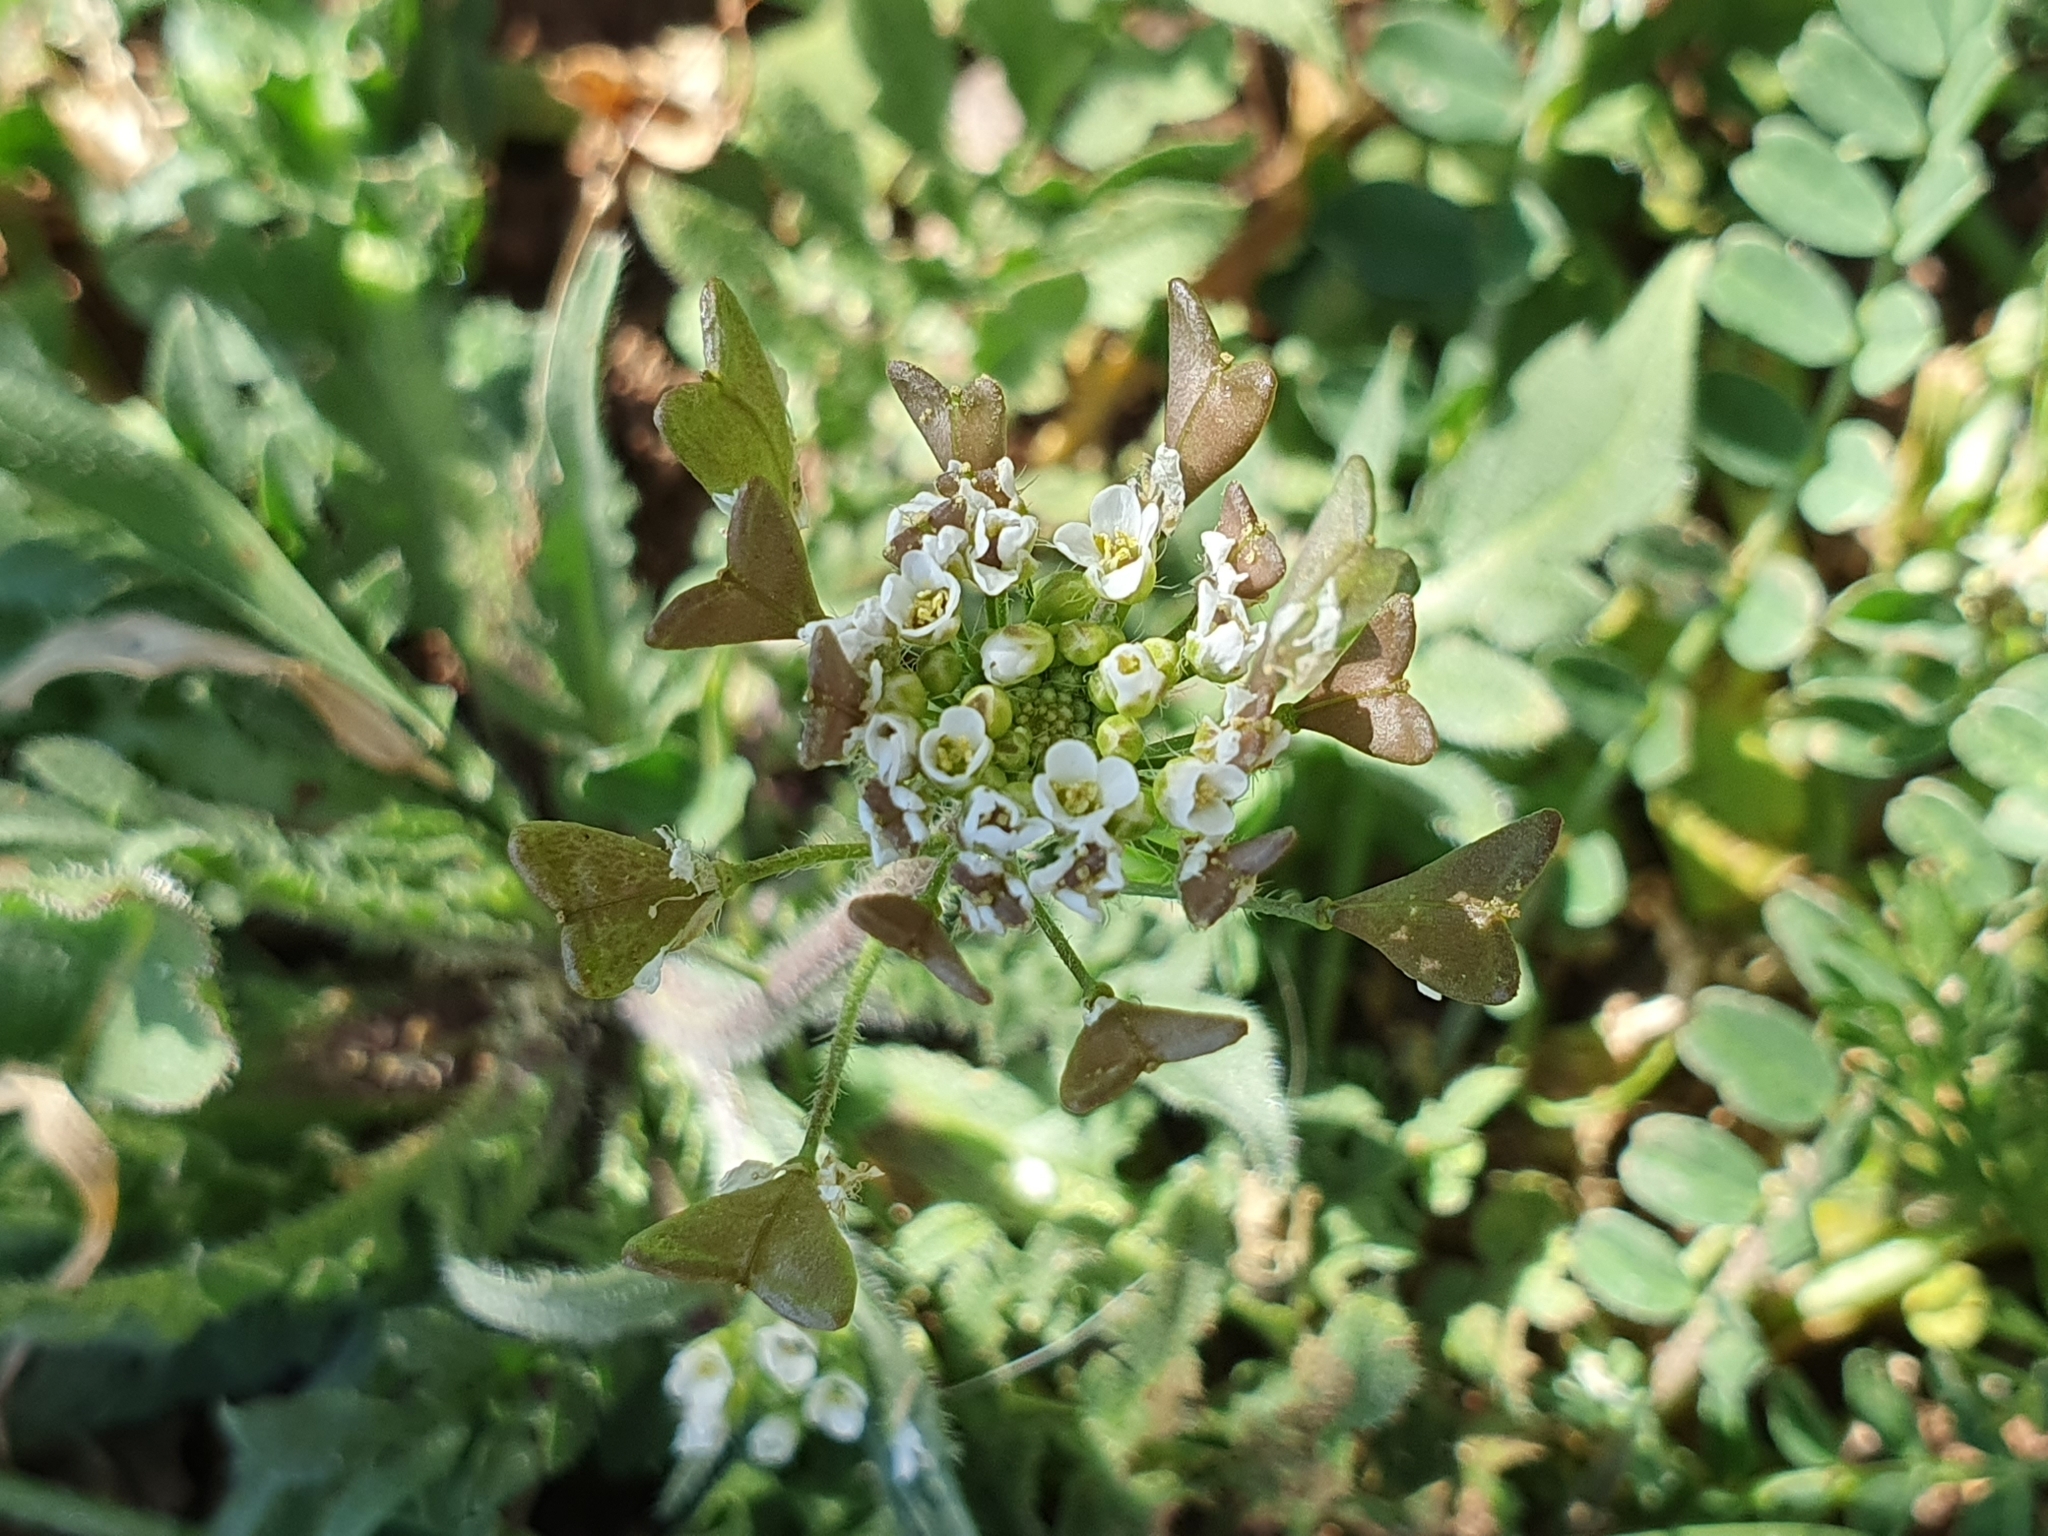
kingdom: Plantae
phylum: Tracheophyta
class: Magnoliopsida
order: Brassicales
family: Brassicaceae
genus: Capsella
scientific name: Capsella bursa-pastoris
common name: Shepherd's purse
